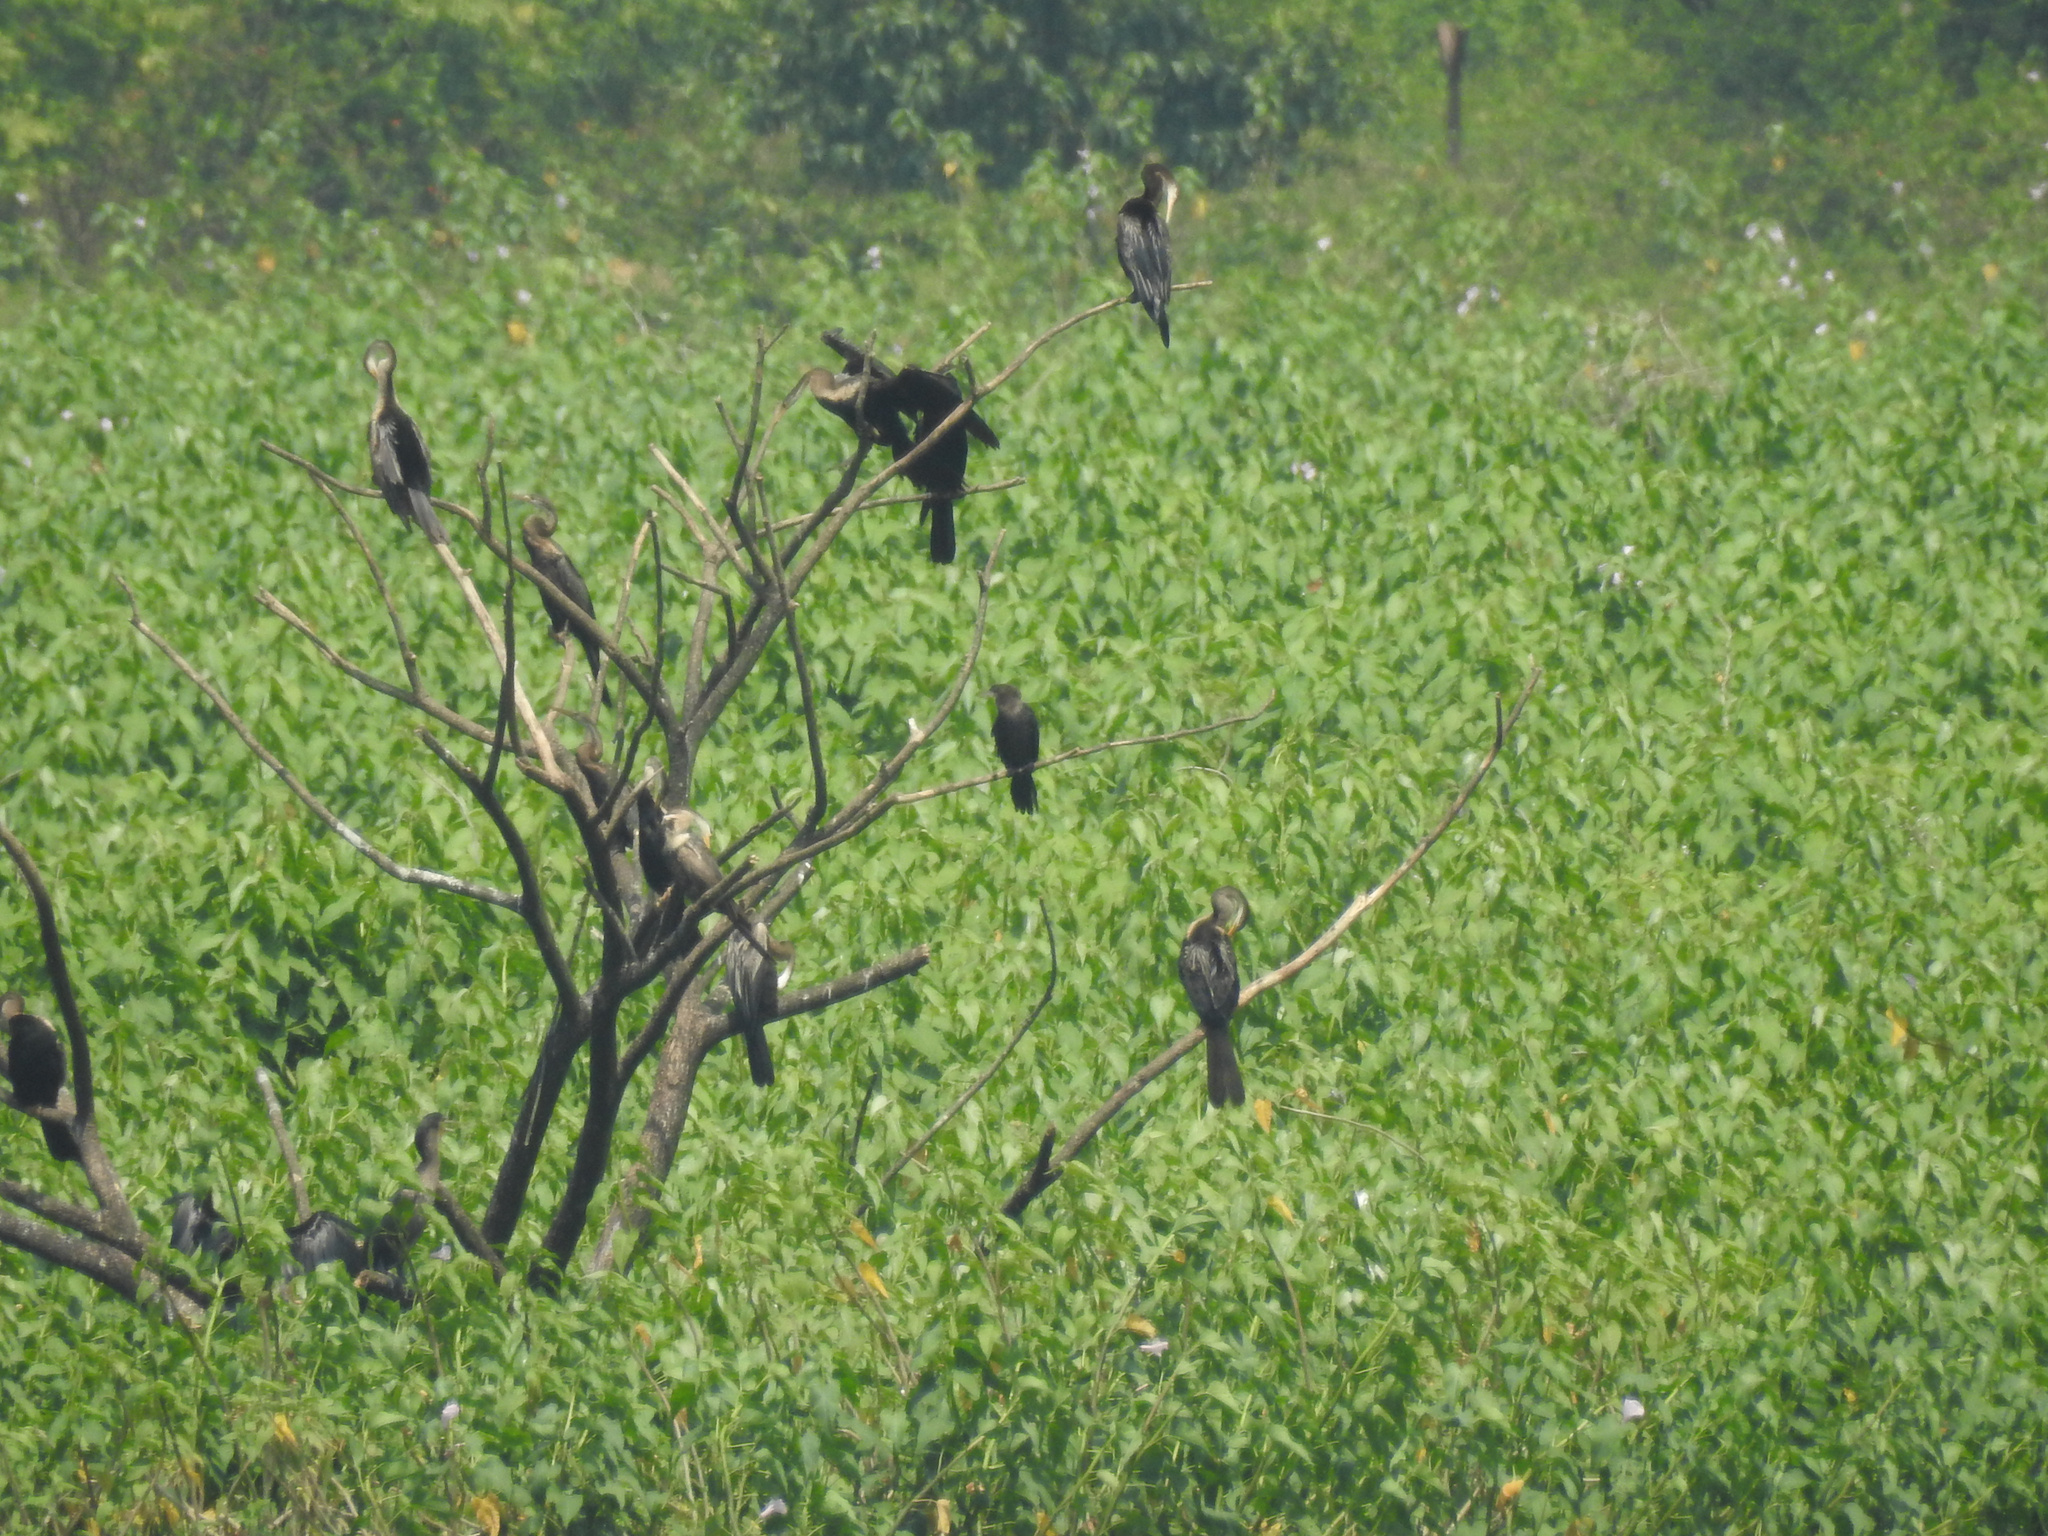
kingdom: Animalia
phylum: Chordata
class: Aves
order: Suliformes
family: Anhingidae
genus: Anhinga
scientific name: Anhinga melanogaster
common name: Oriental darter
